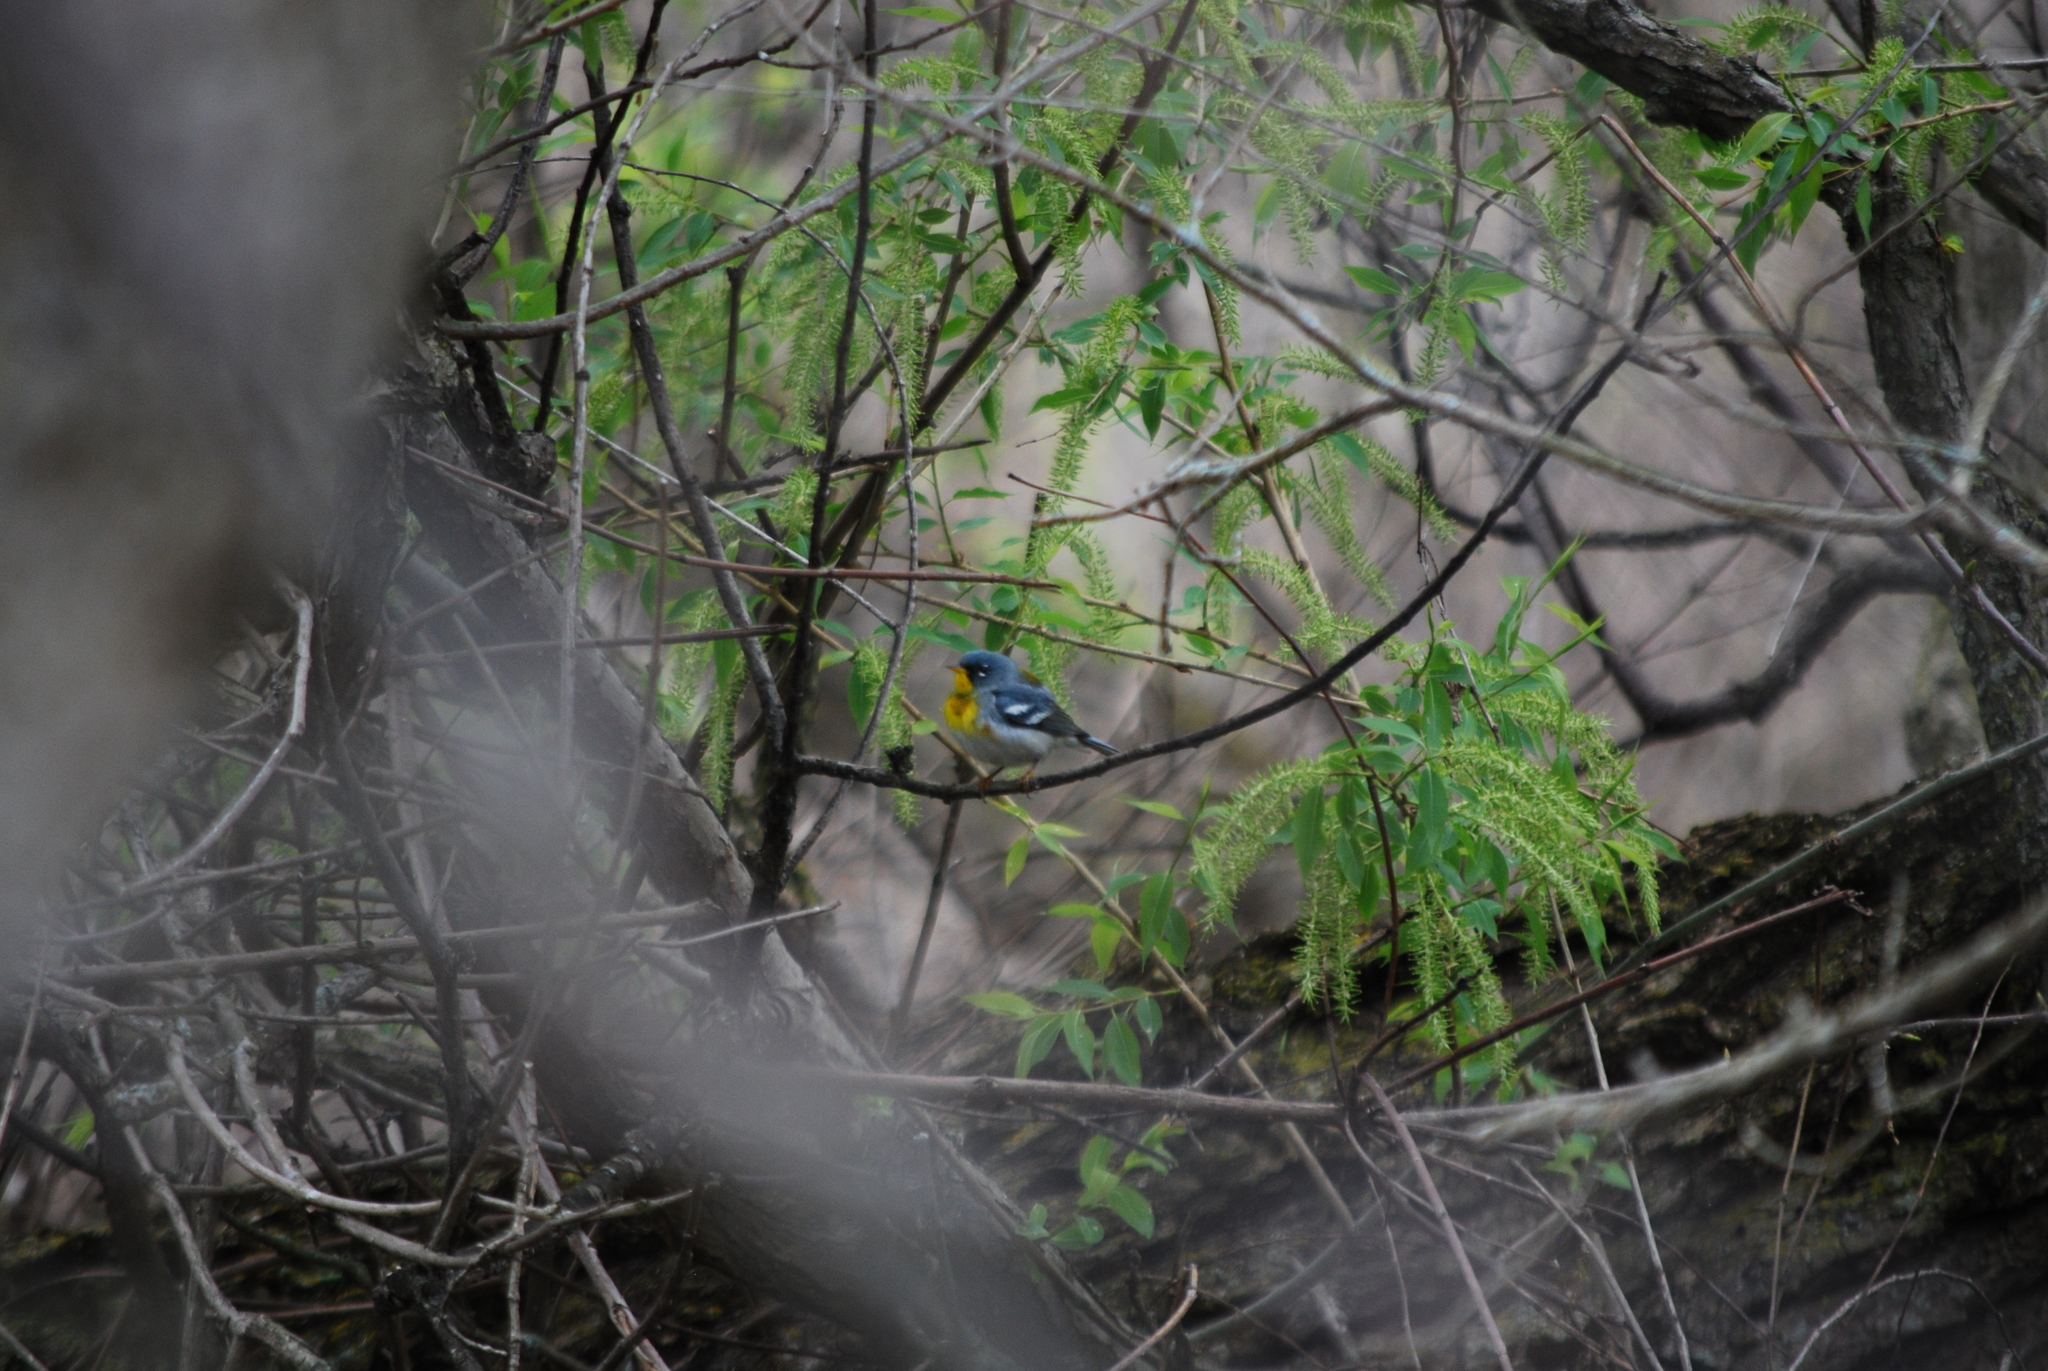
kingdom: Animalia
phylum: Chordata
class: Aves
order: Passeriformes
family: Parulidae
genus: Setophaga
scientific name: Setophaga americana
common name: Northern parula
